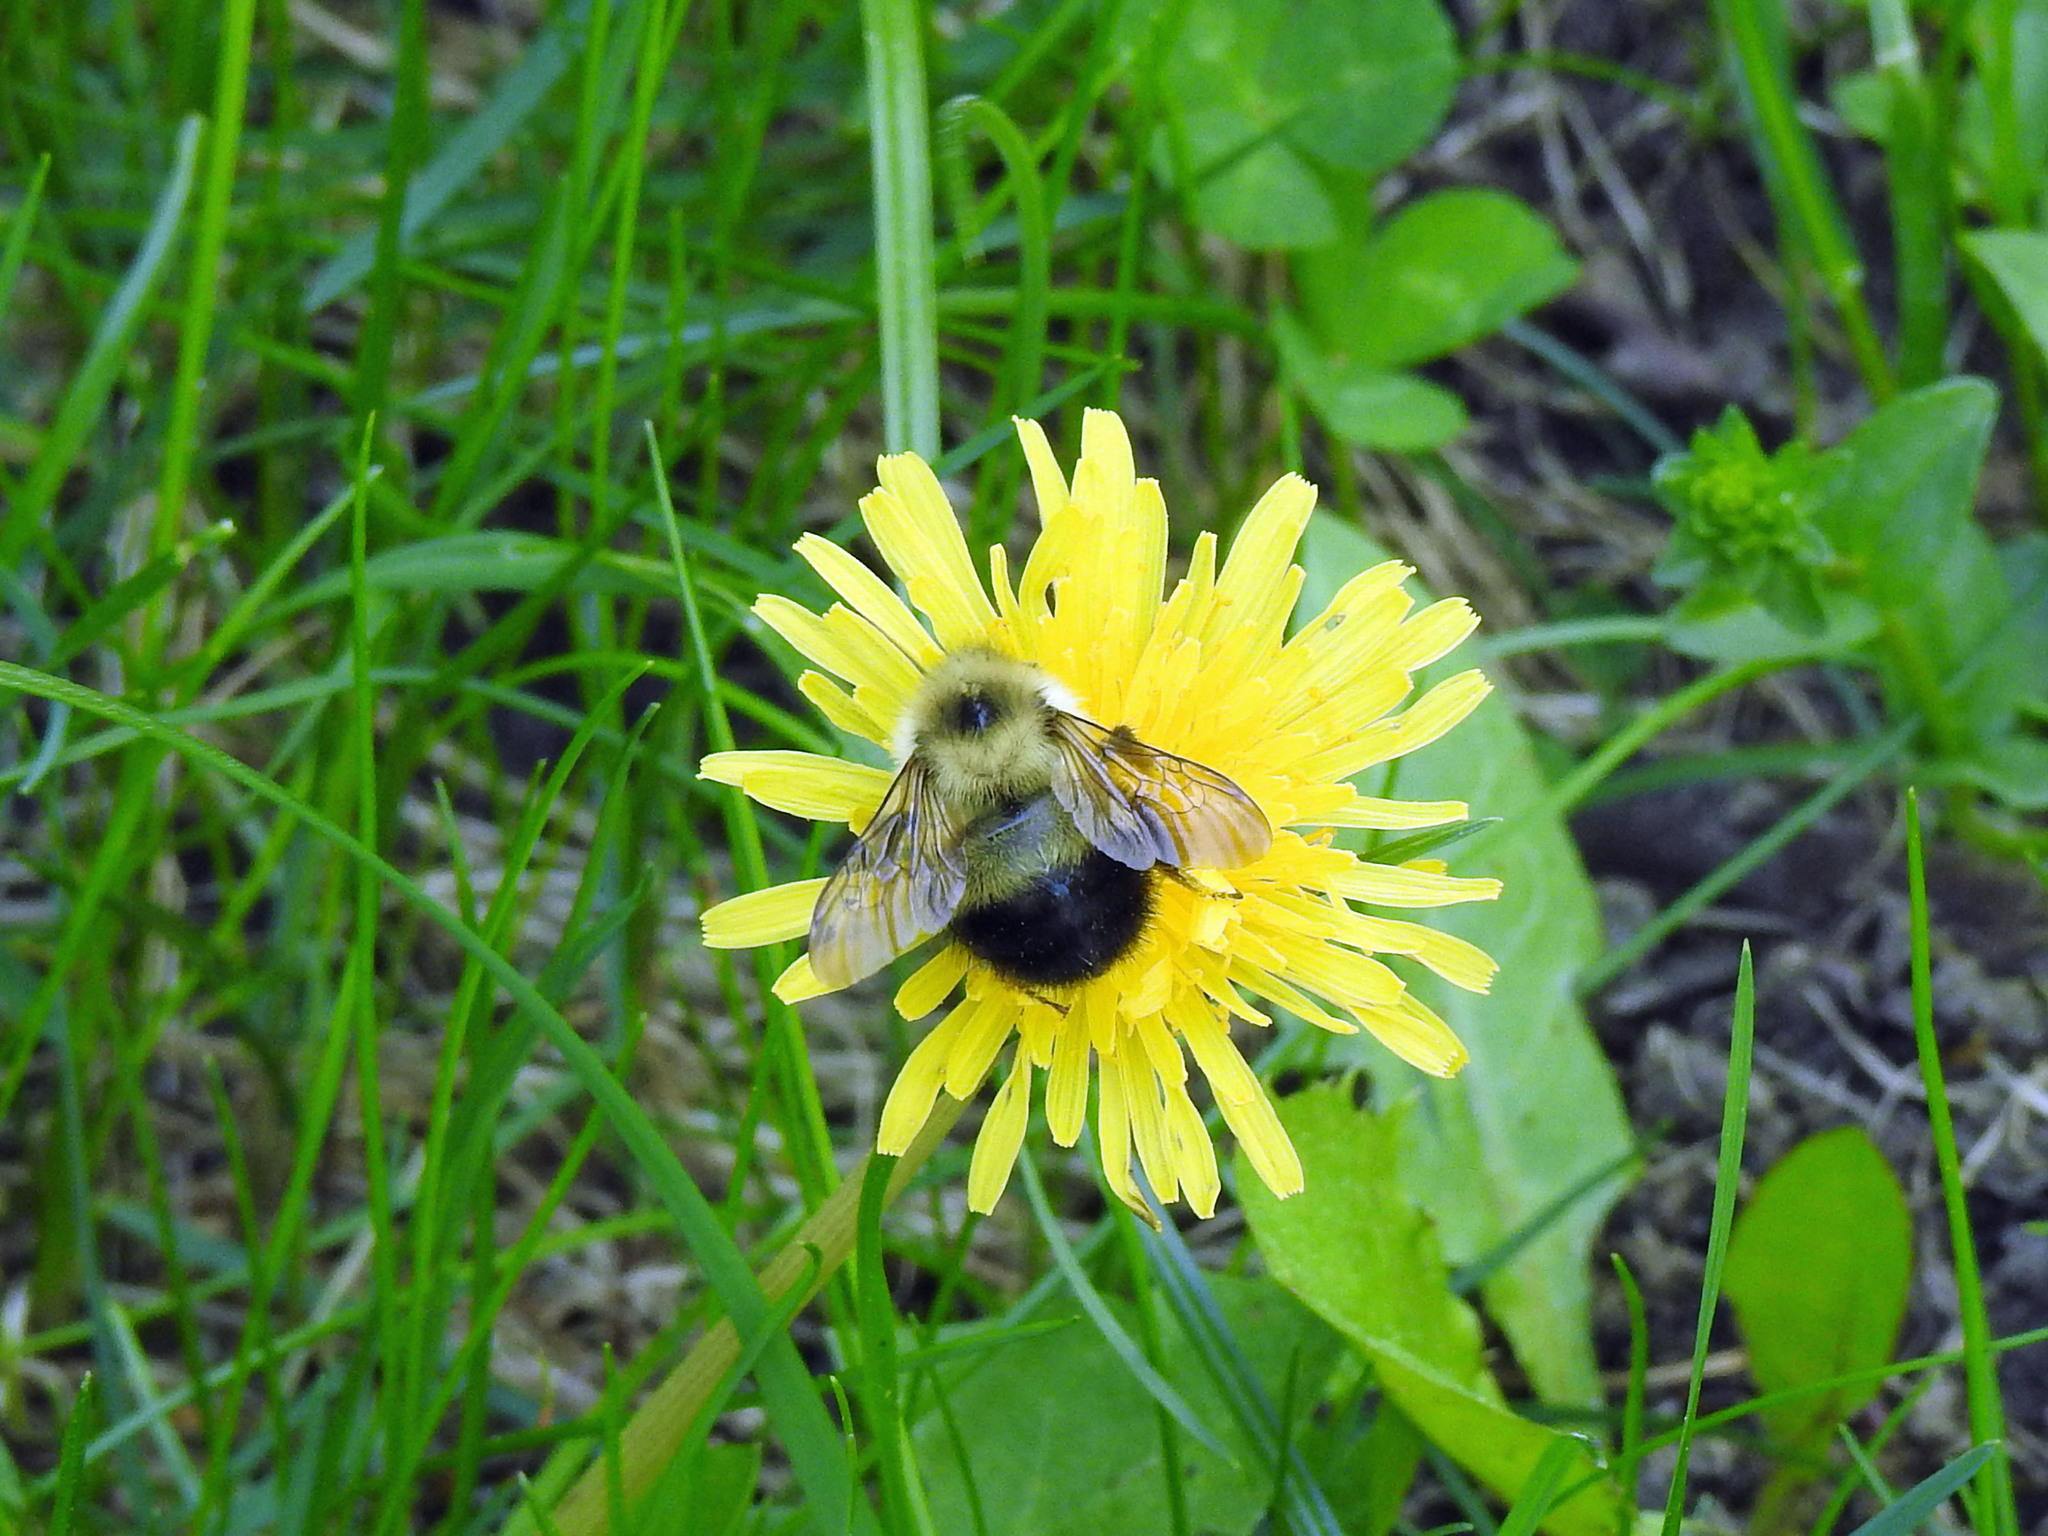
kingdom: Animalia
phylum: Arthropoda
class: Insecta
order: Hymenoptera
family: Apidae
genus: Pyrobombus
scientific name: Pyrobombus
